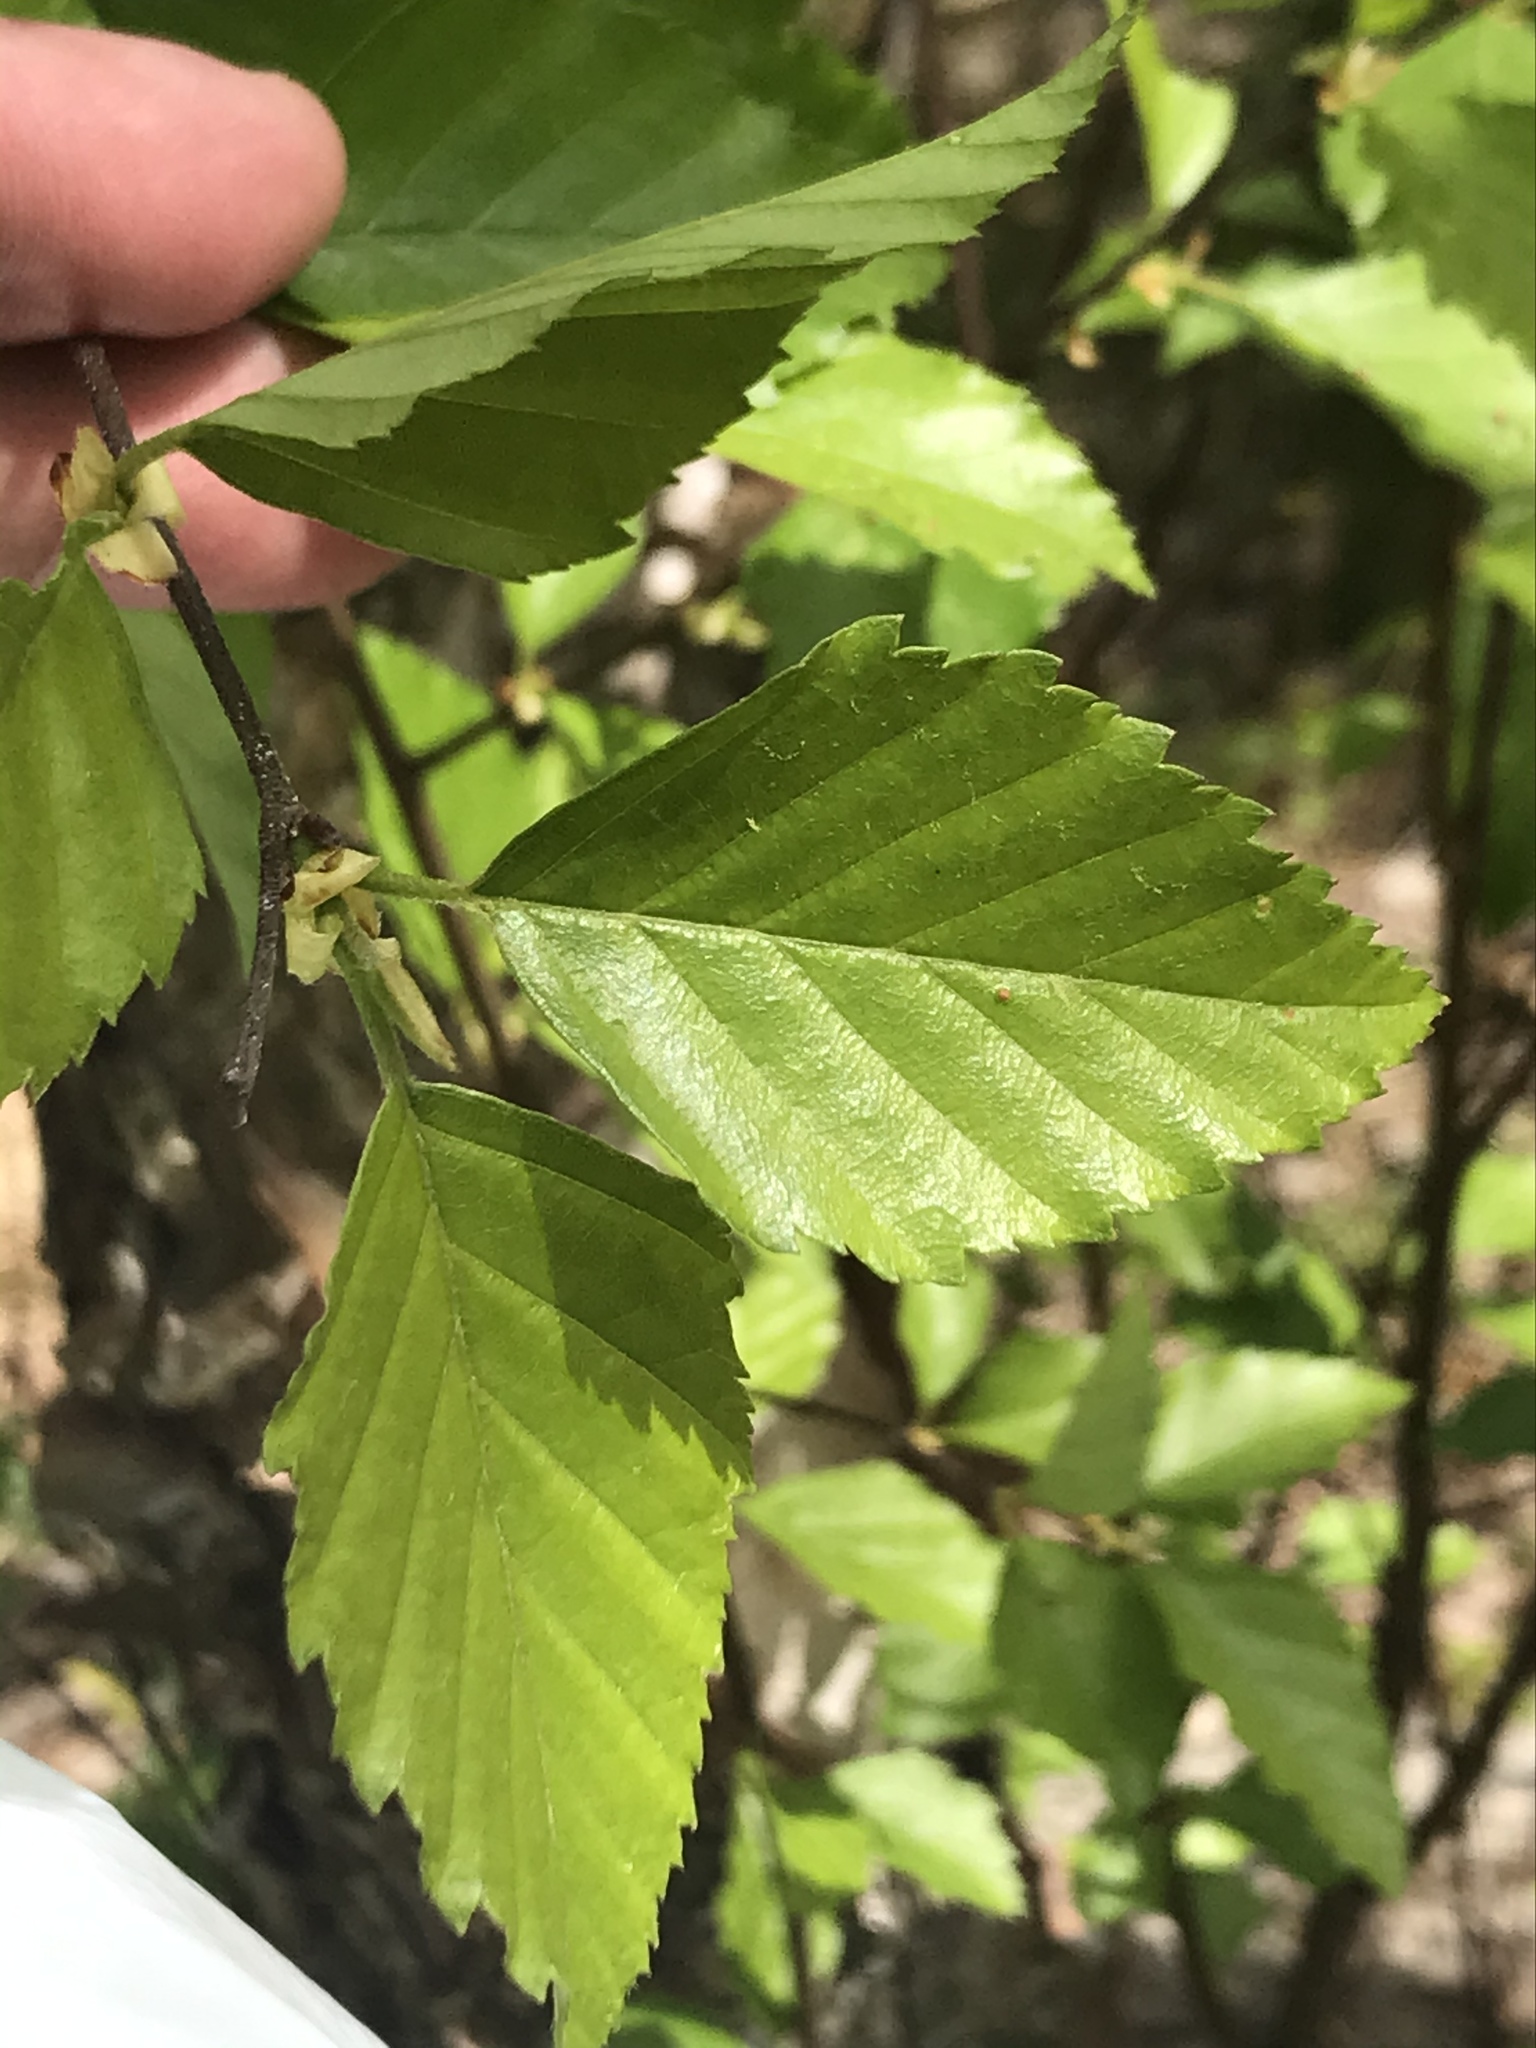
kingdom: Plantae
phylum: Tracheophyta
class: Magnoliopsida
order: Fagales
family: Betulaceae
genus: Betula
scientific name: Betula nigra
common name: Black birch
